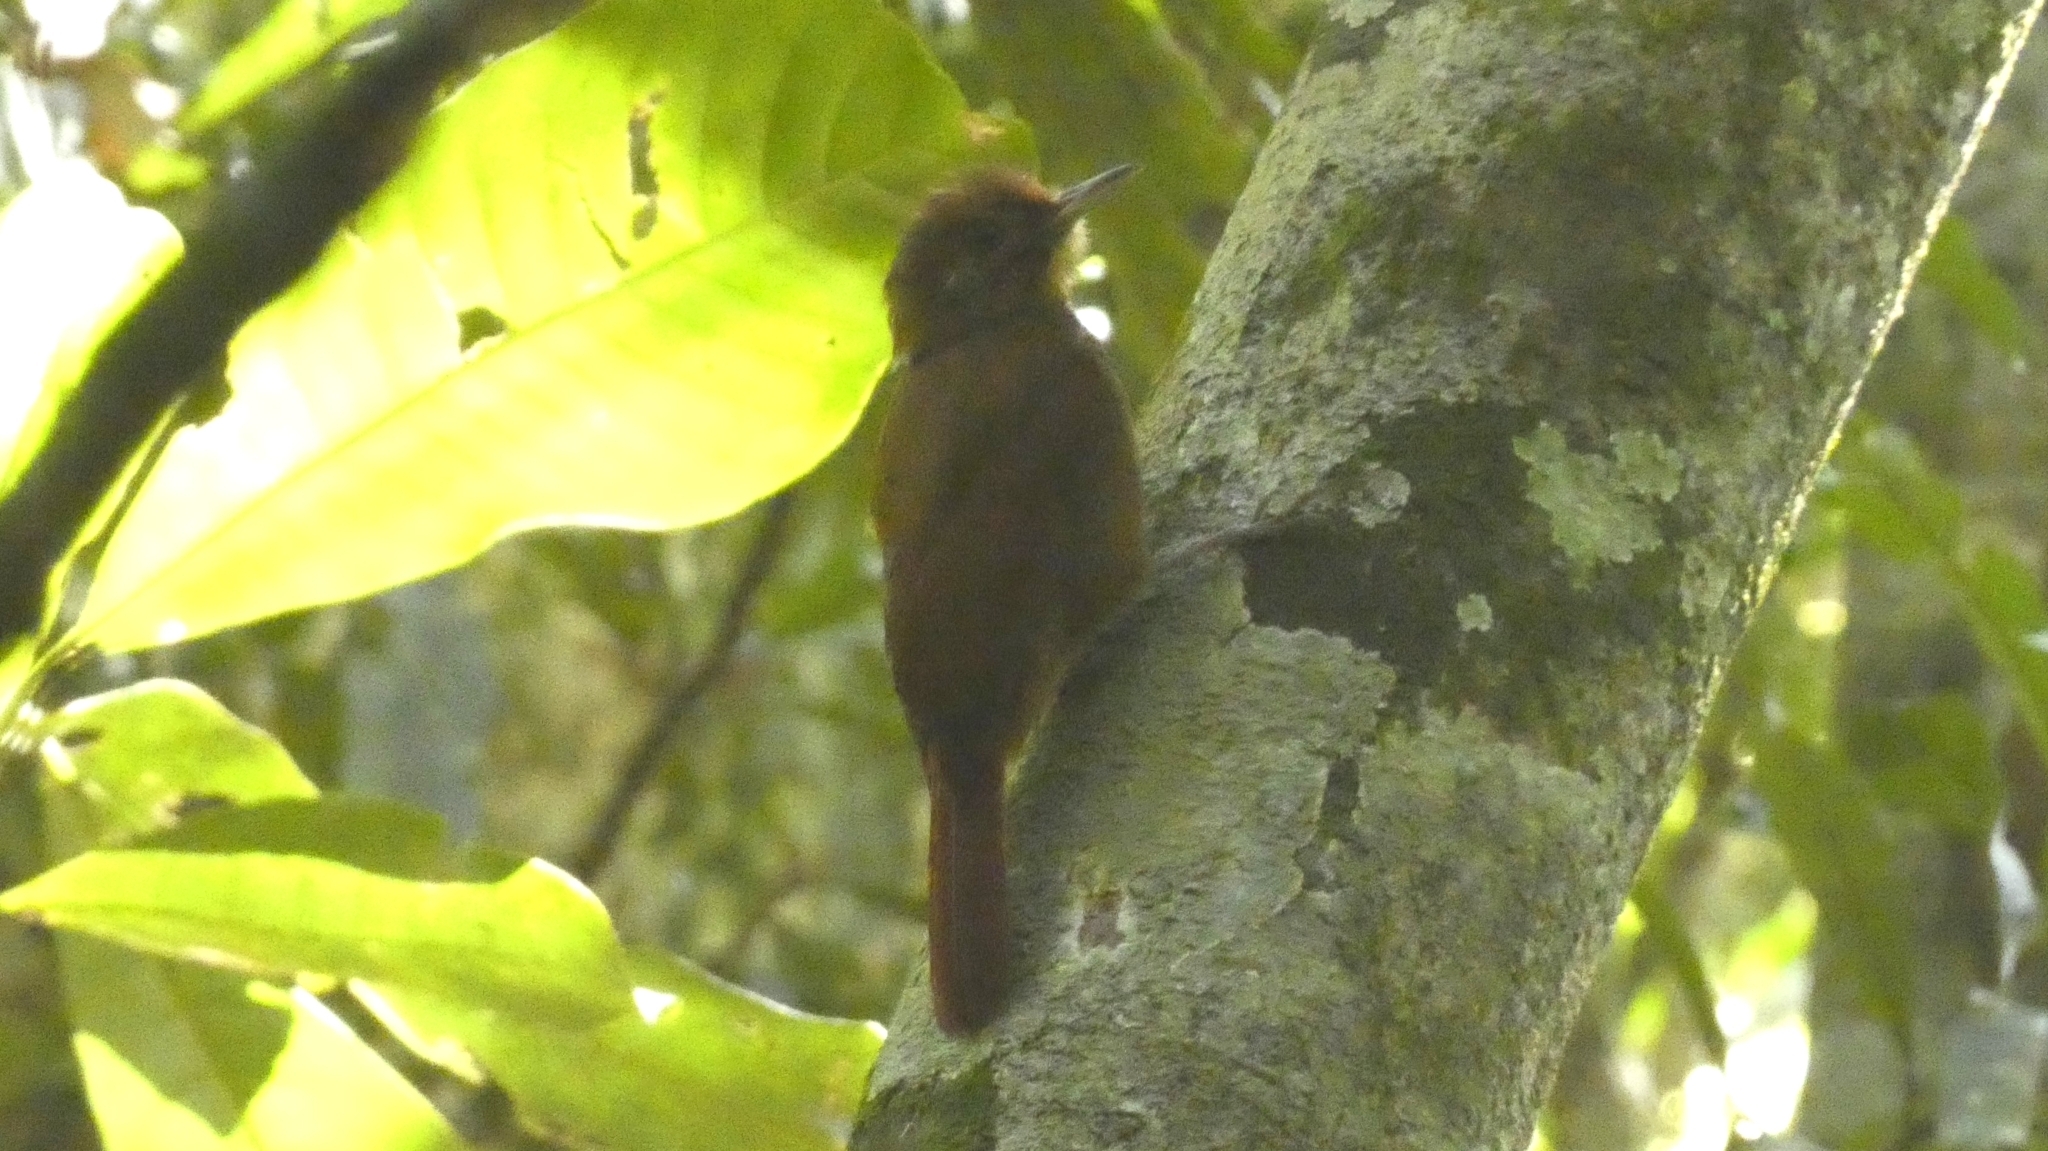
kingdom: Animalia
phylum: Chordata
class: Aves
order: Passeriformes
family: Furnariidae
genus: Dendrocincla
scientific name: Dendrocincla fuliginosa
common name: Plain-brown woodcreeper
